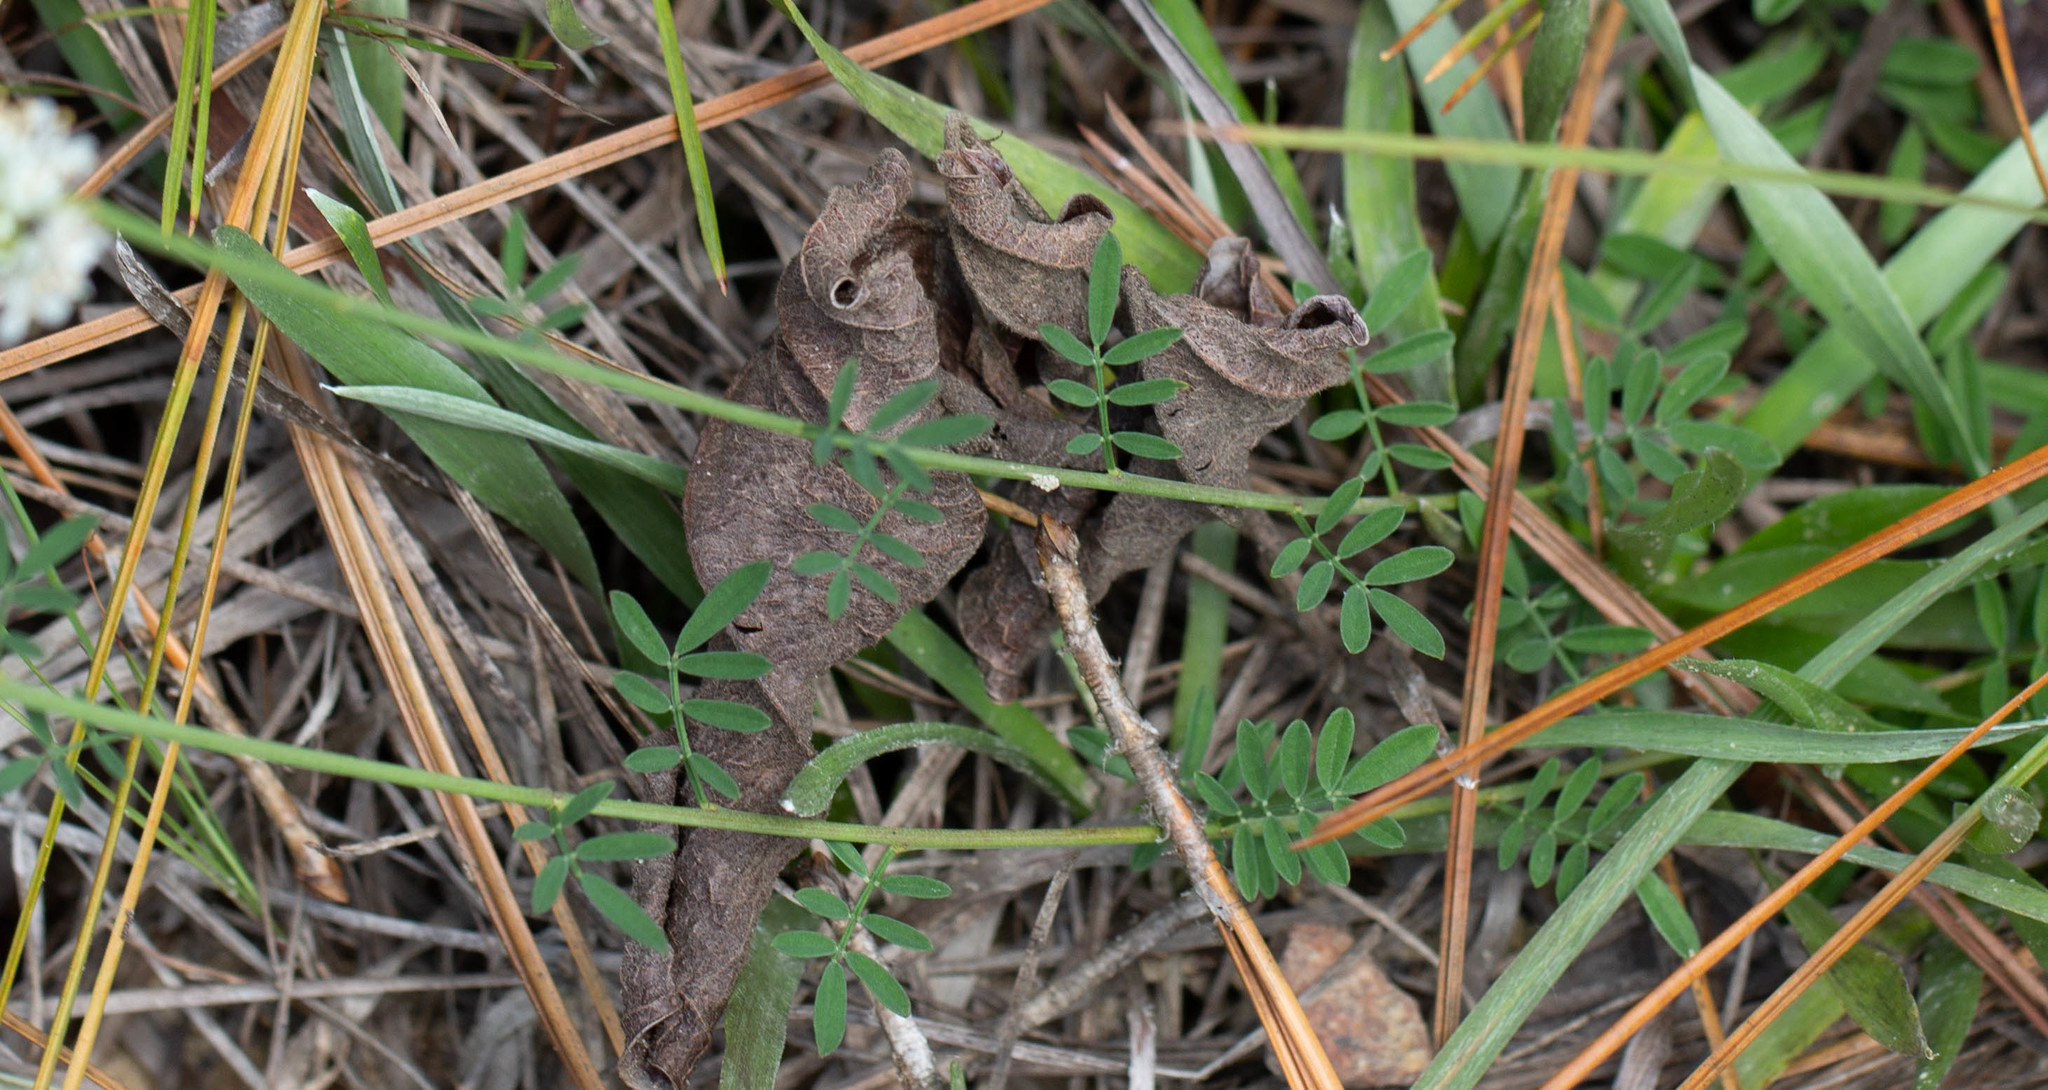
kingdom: Plantae
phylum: Tracheophyta
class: Magnoliopsida
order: Fabales
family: Fabaceae
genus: Dalea
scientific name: Dalea mountjoyae
